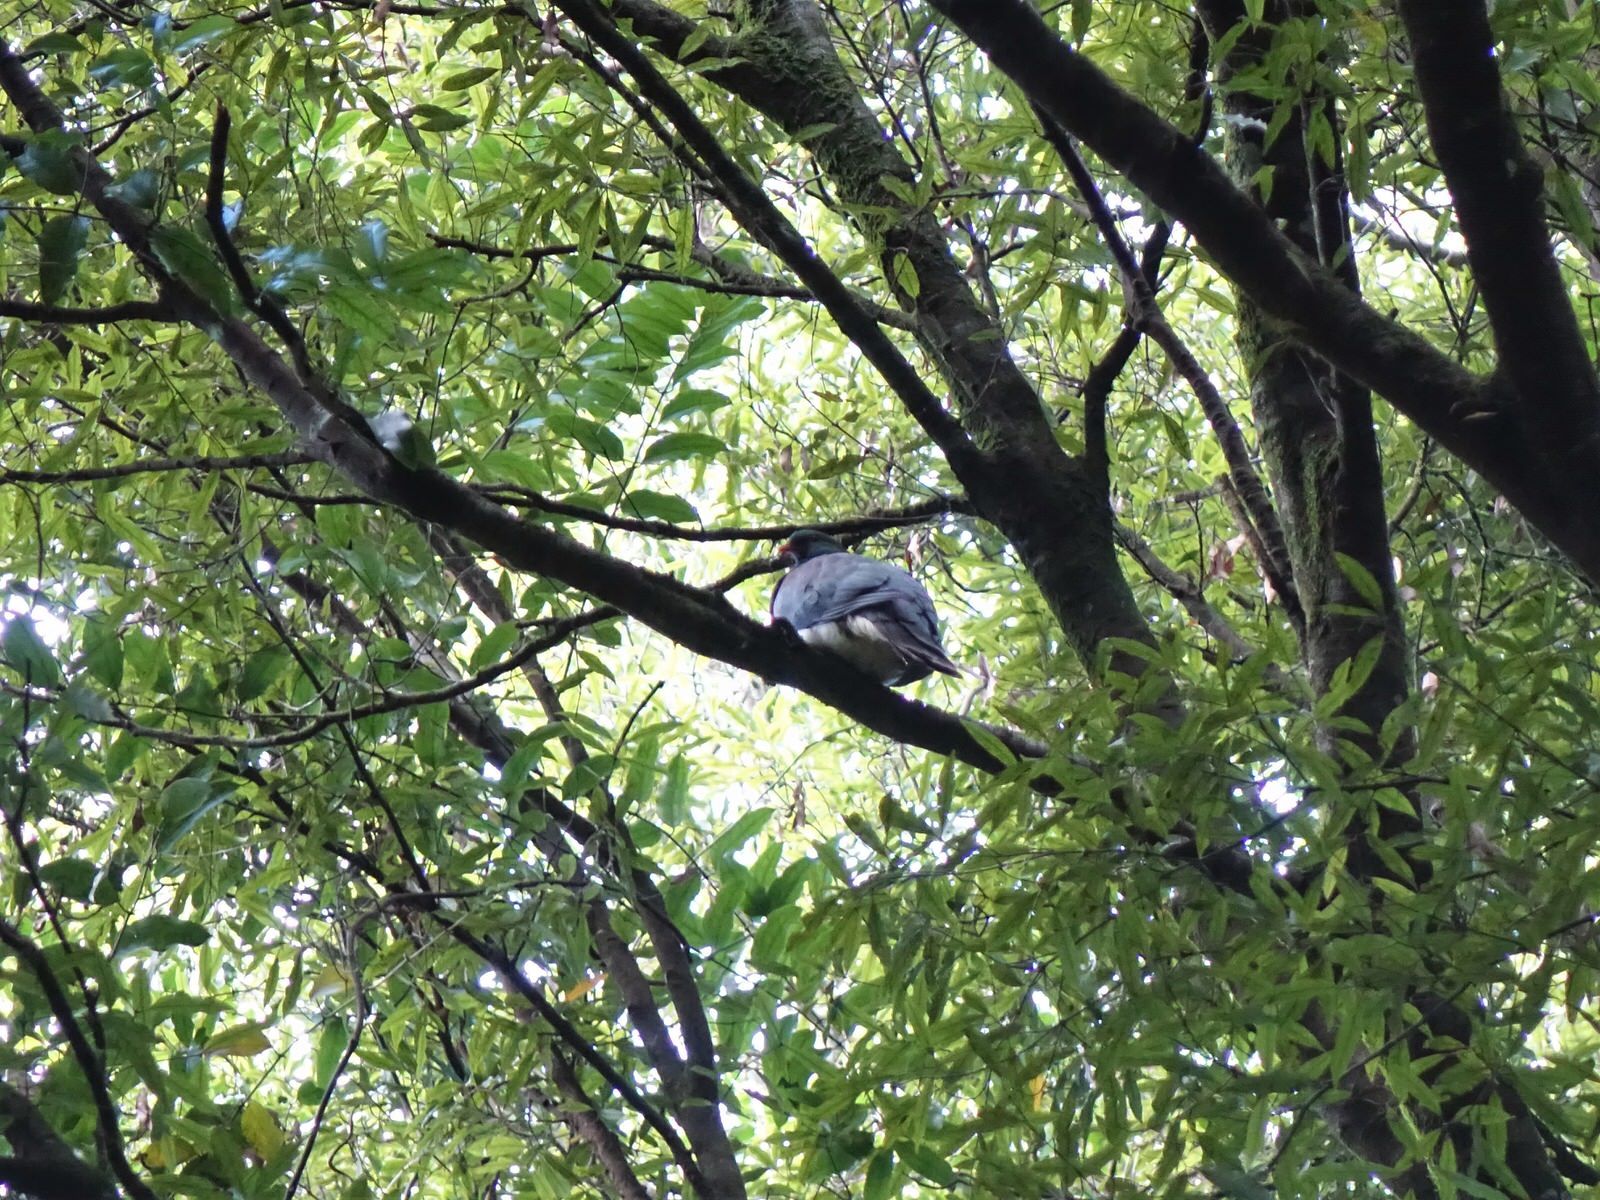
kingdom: Animalia
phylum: Chordata
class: Aves
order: Columbiformes
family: Columbidae
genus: Hemiphaga
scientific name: Hemiphaga novaeseelandiae
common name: New zealand pigeon
